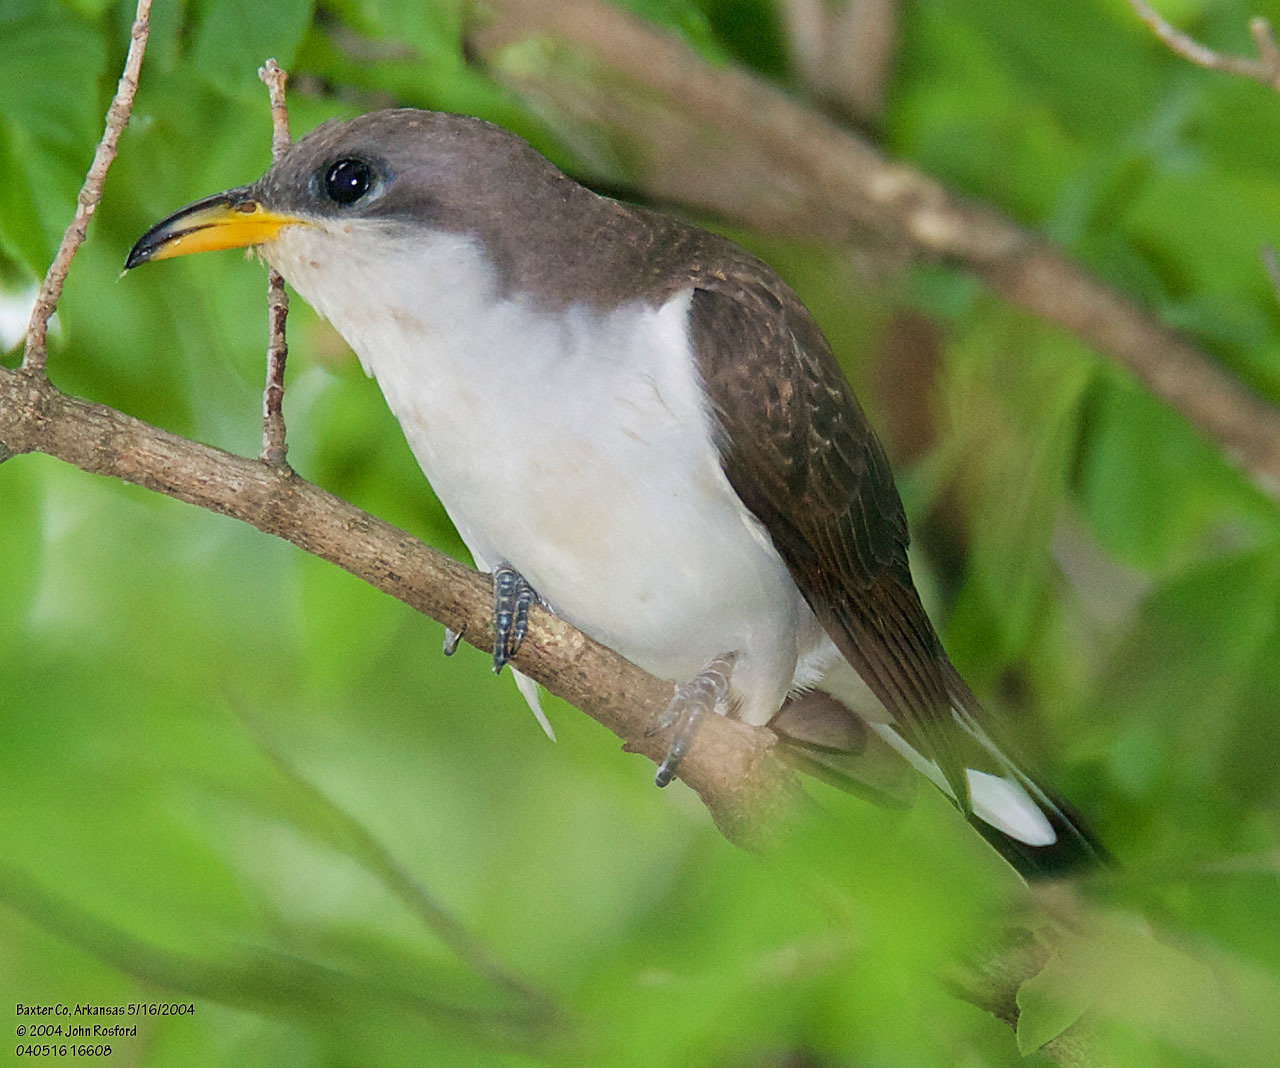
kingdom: Animalia
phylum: Chordata
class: Aves
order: Cuculiformes
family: Cuculidae
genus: Coccyzus
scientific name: Coccyzus americanus
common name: Yellow-billed cuckoo
